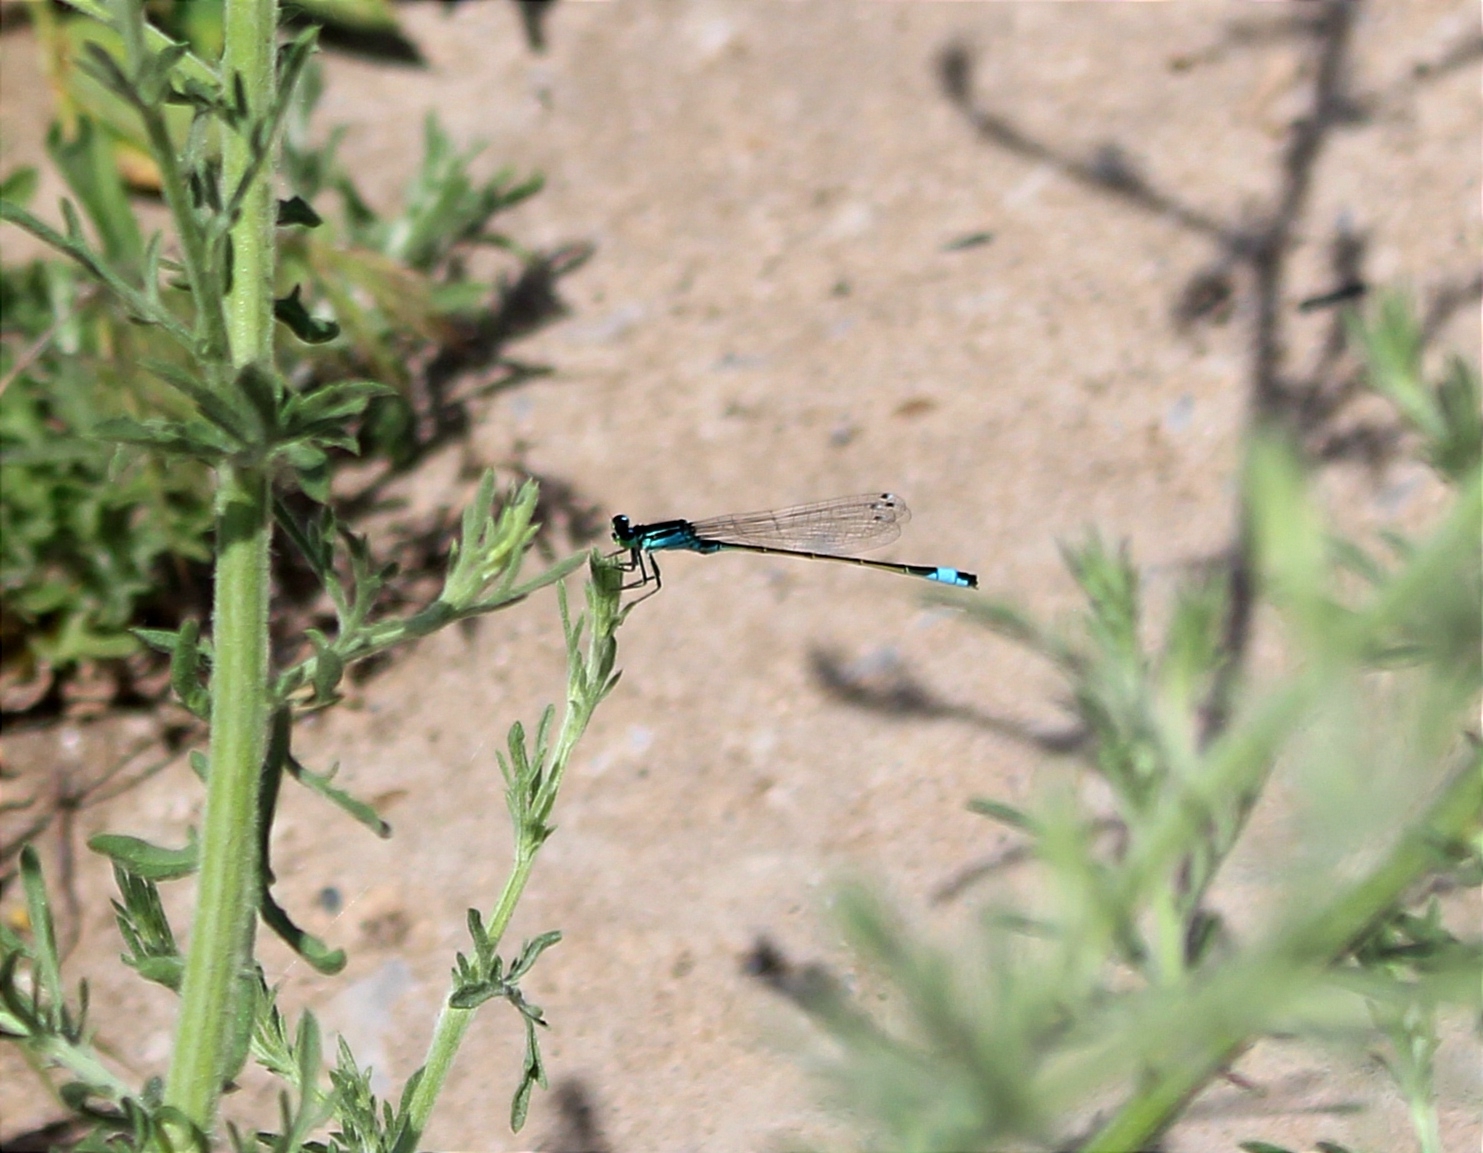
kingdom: Animalia
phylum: Arthropoda
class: Insecta
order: Odonata
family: Coenagrionidae
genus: Ischnura
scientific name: Ischnura elegans
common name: Blue-tailed damselfly
